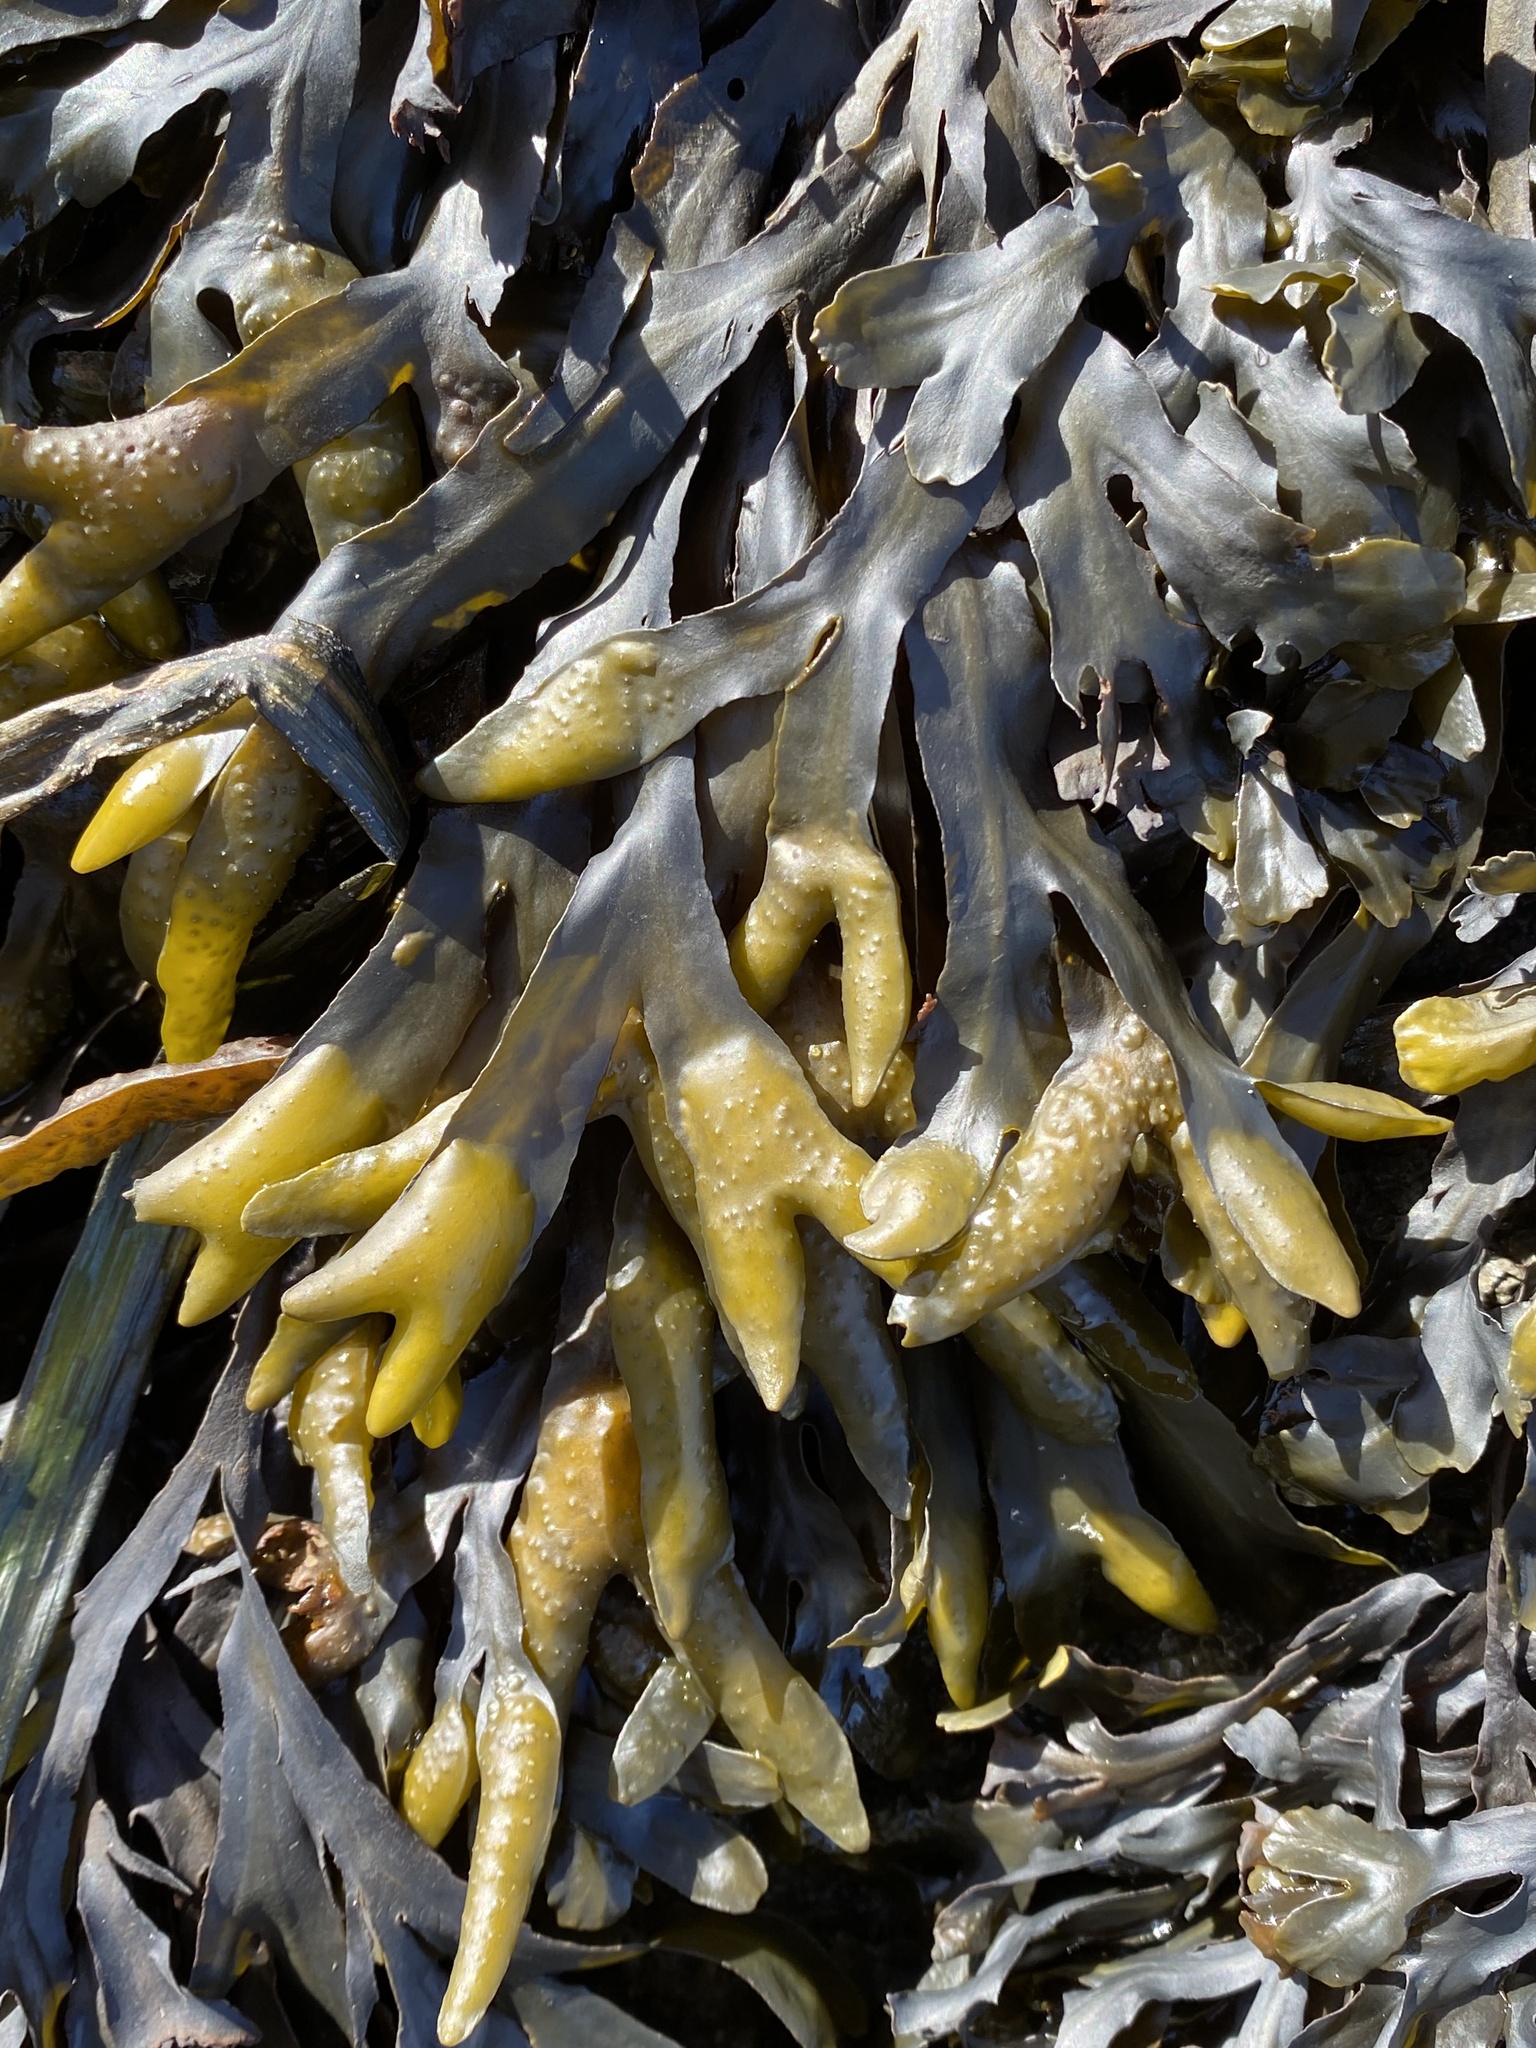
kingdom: Chromista
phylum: Ochrophyta
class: Phaeophyceae
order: Fucales
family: Fucaceae
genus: Fucus
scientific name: Fucus distichus
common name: Rockweed
